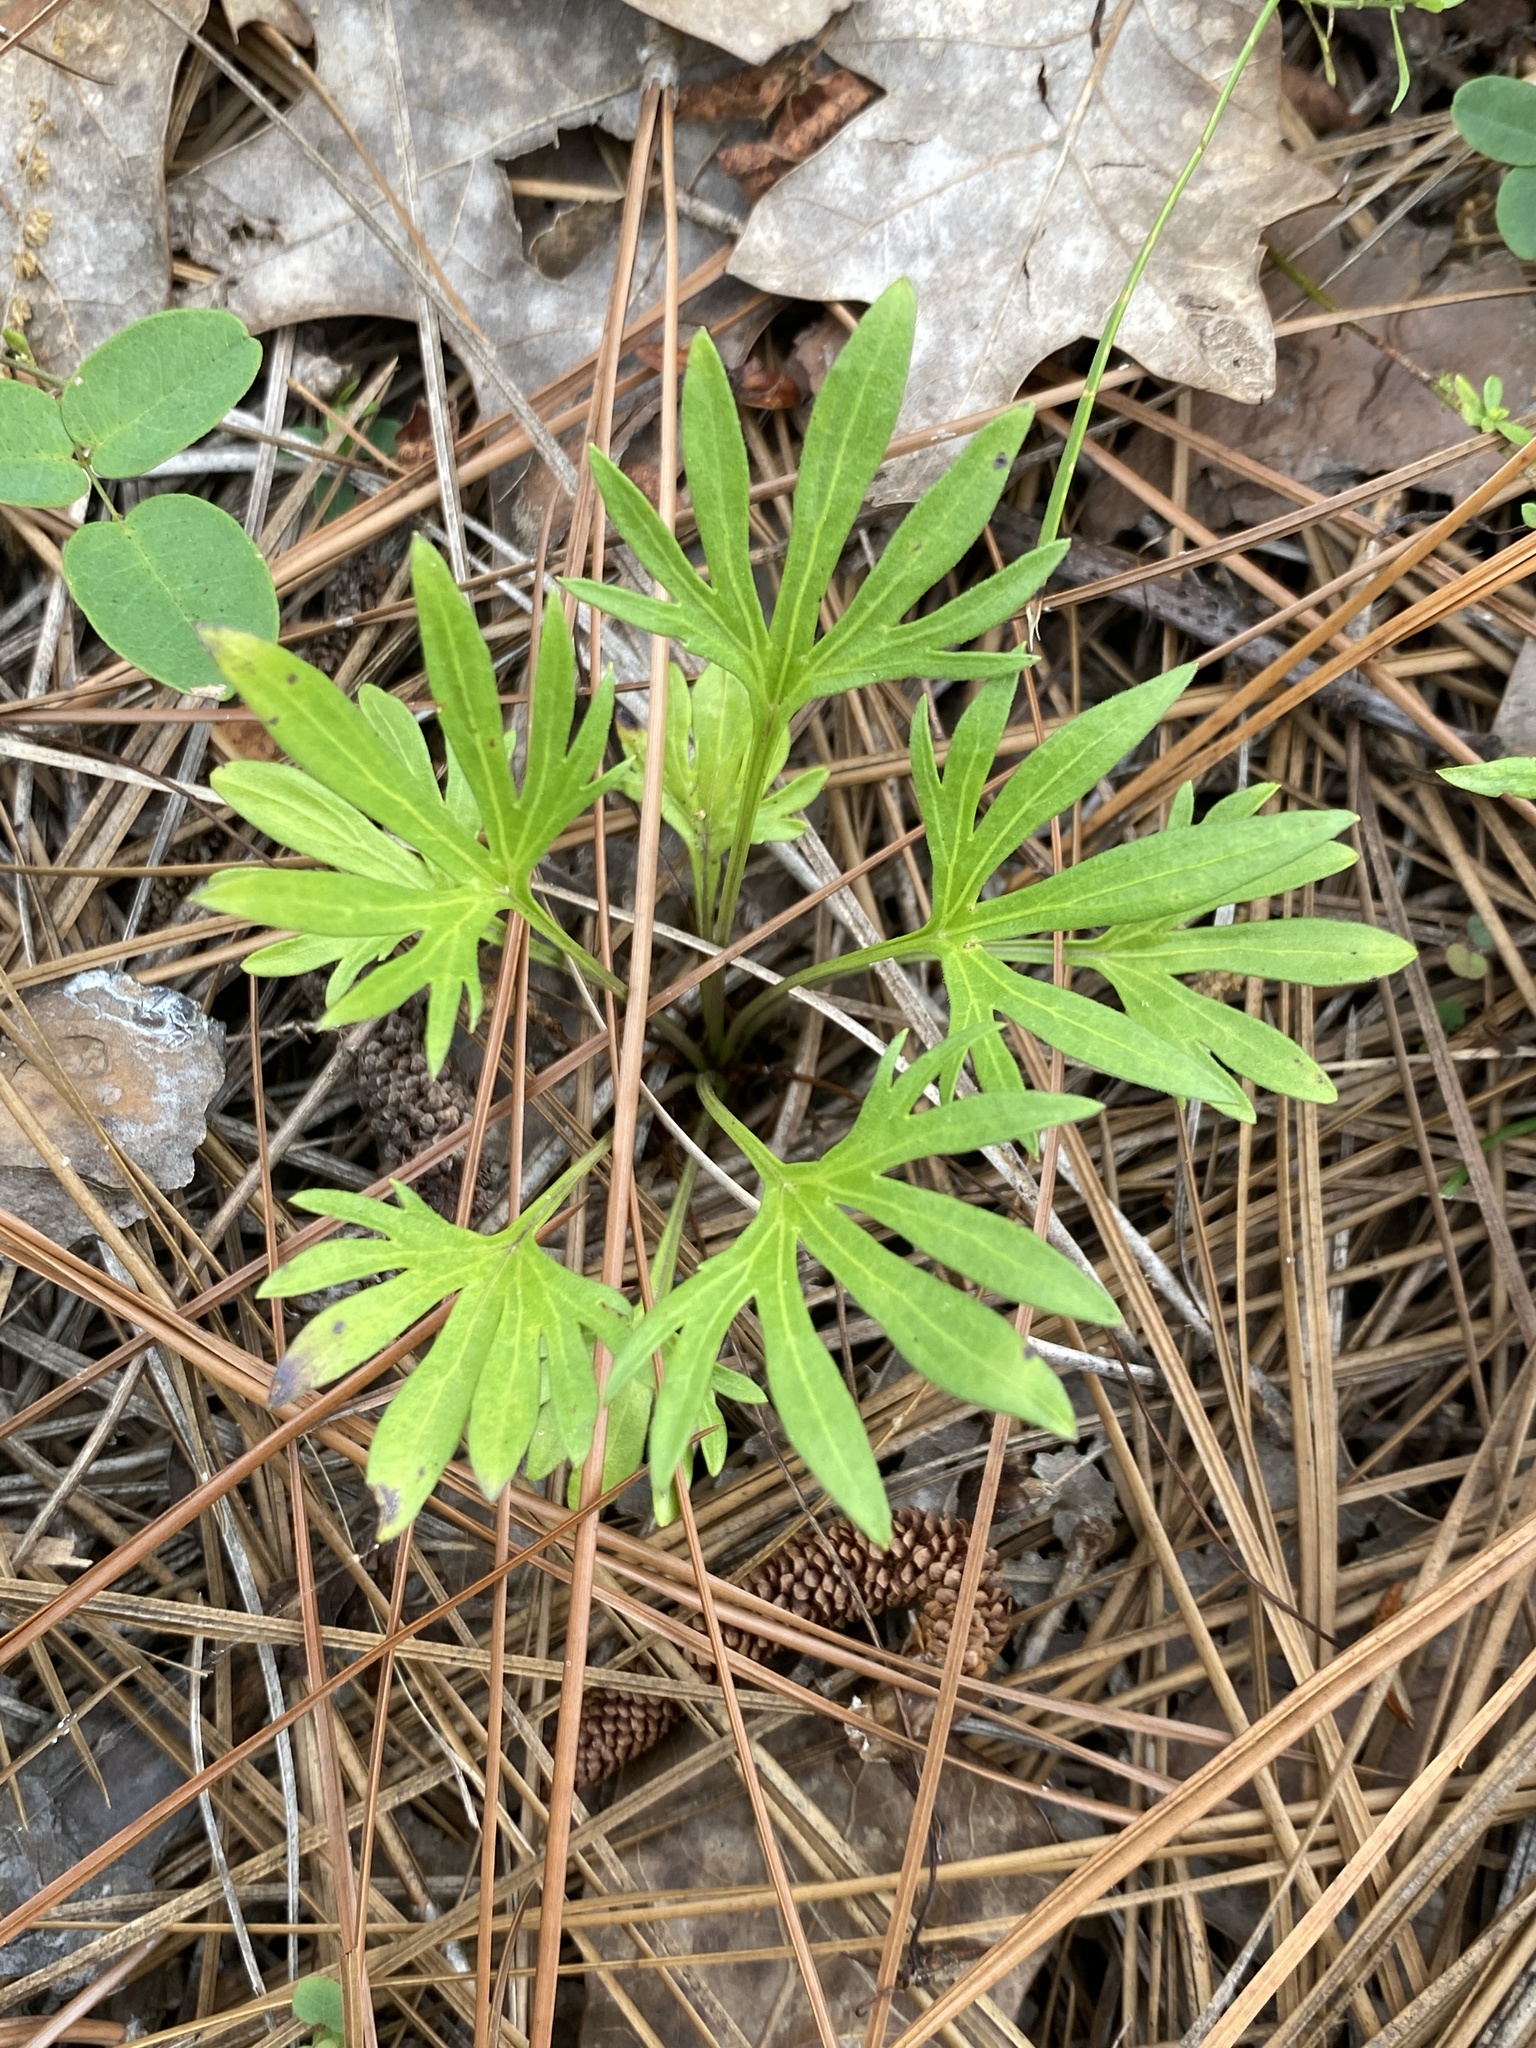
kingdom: Plantae
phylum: Tracheophyta
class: Magnoliopsida
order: Malpighiales
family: Violaceae
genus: Viola
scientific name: Viola pedata
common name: Pansy violet
